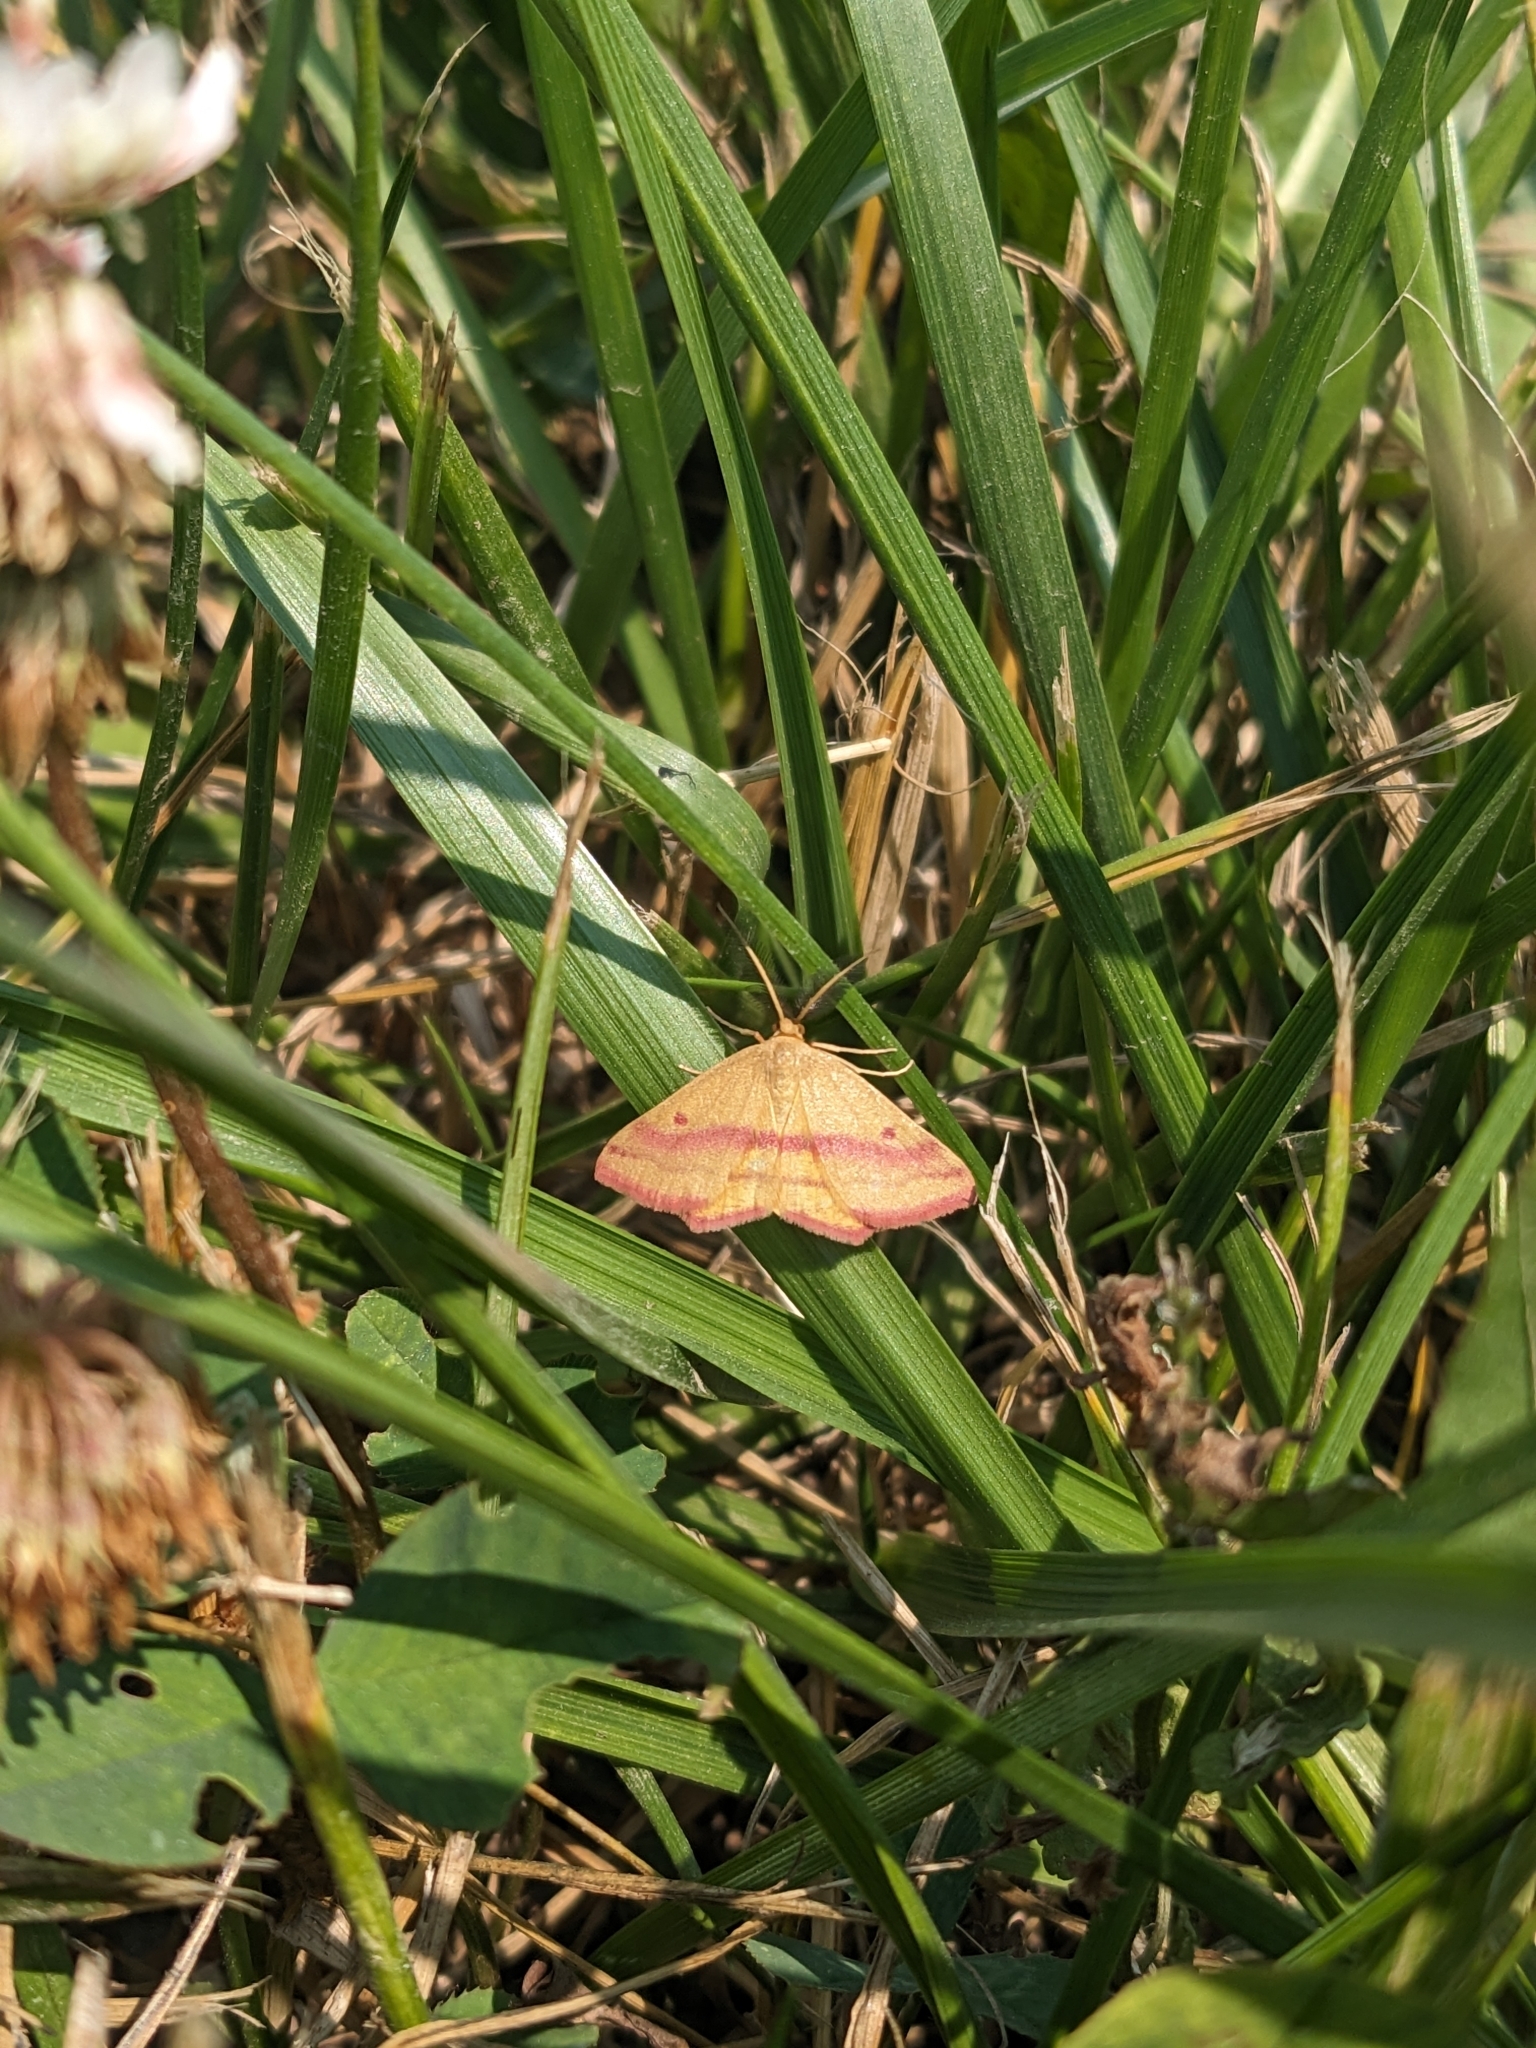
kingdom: Animalia
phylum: Arthropoda
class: Insecta
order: Lepidoptera
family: Geometridae
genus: Haematopis
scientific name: Haematopis grataria
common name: Chickweed geometer
